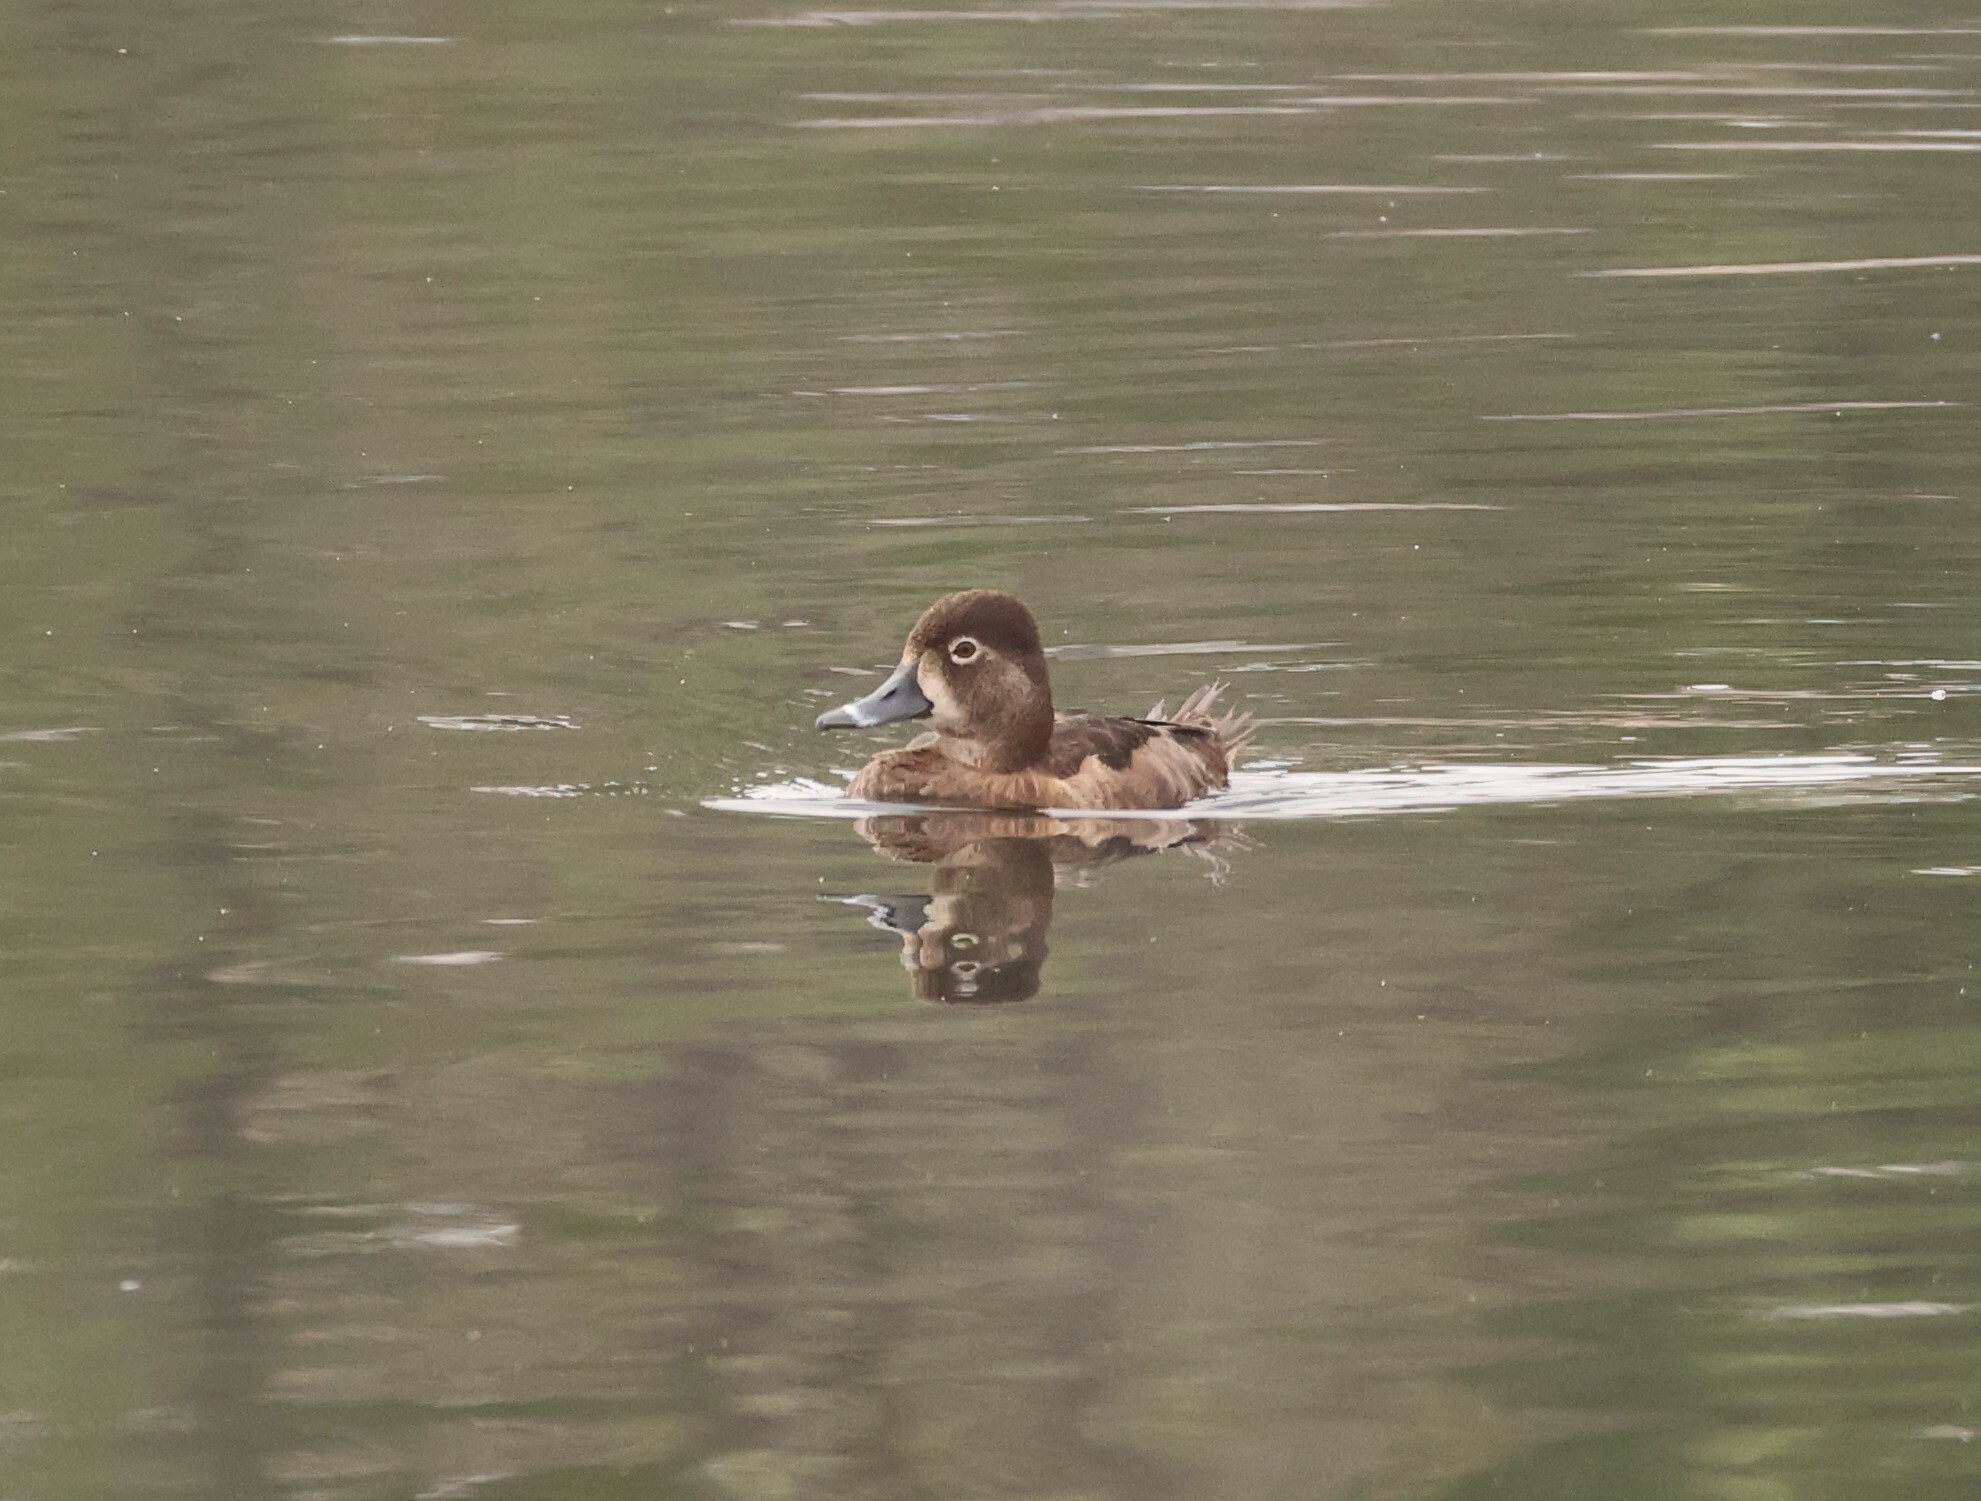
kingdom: Animalia
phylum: Chordata
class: Aves
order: Anseriformes
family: Anatidae
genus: Aythya
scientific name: Aythya collaris
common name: Ring-necked duck
